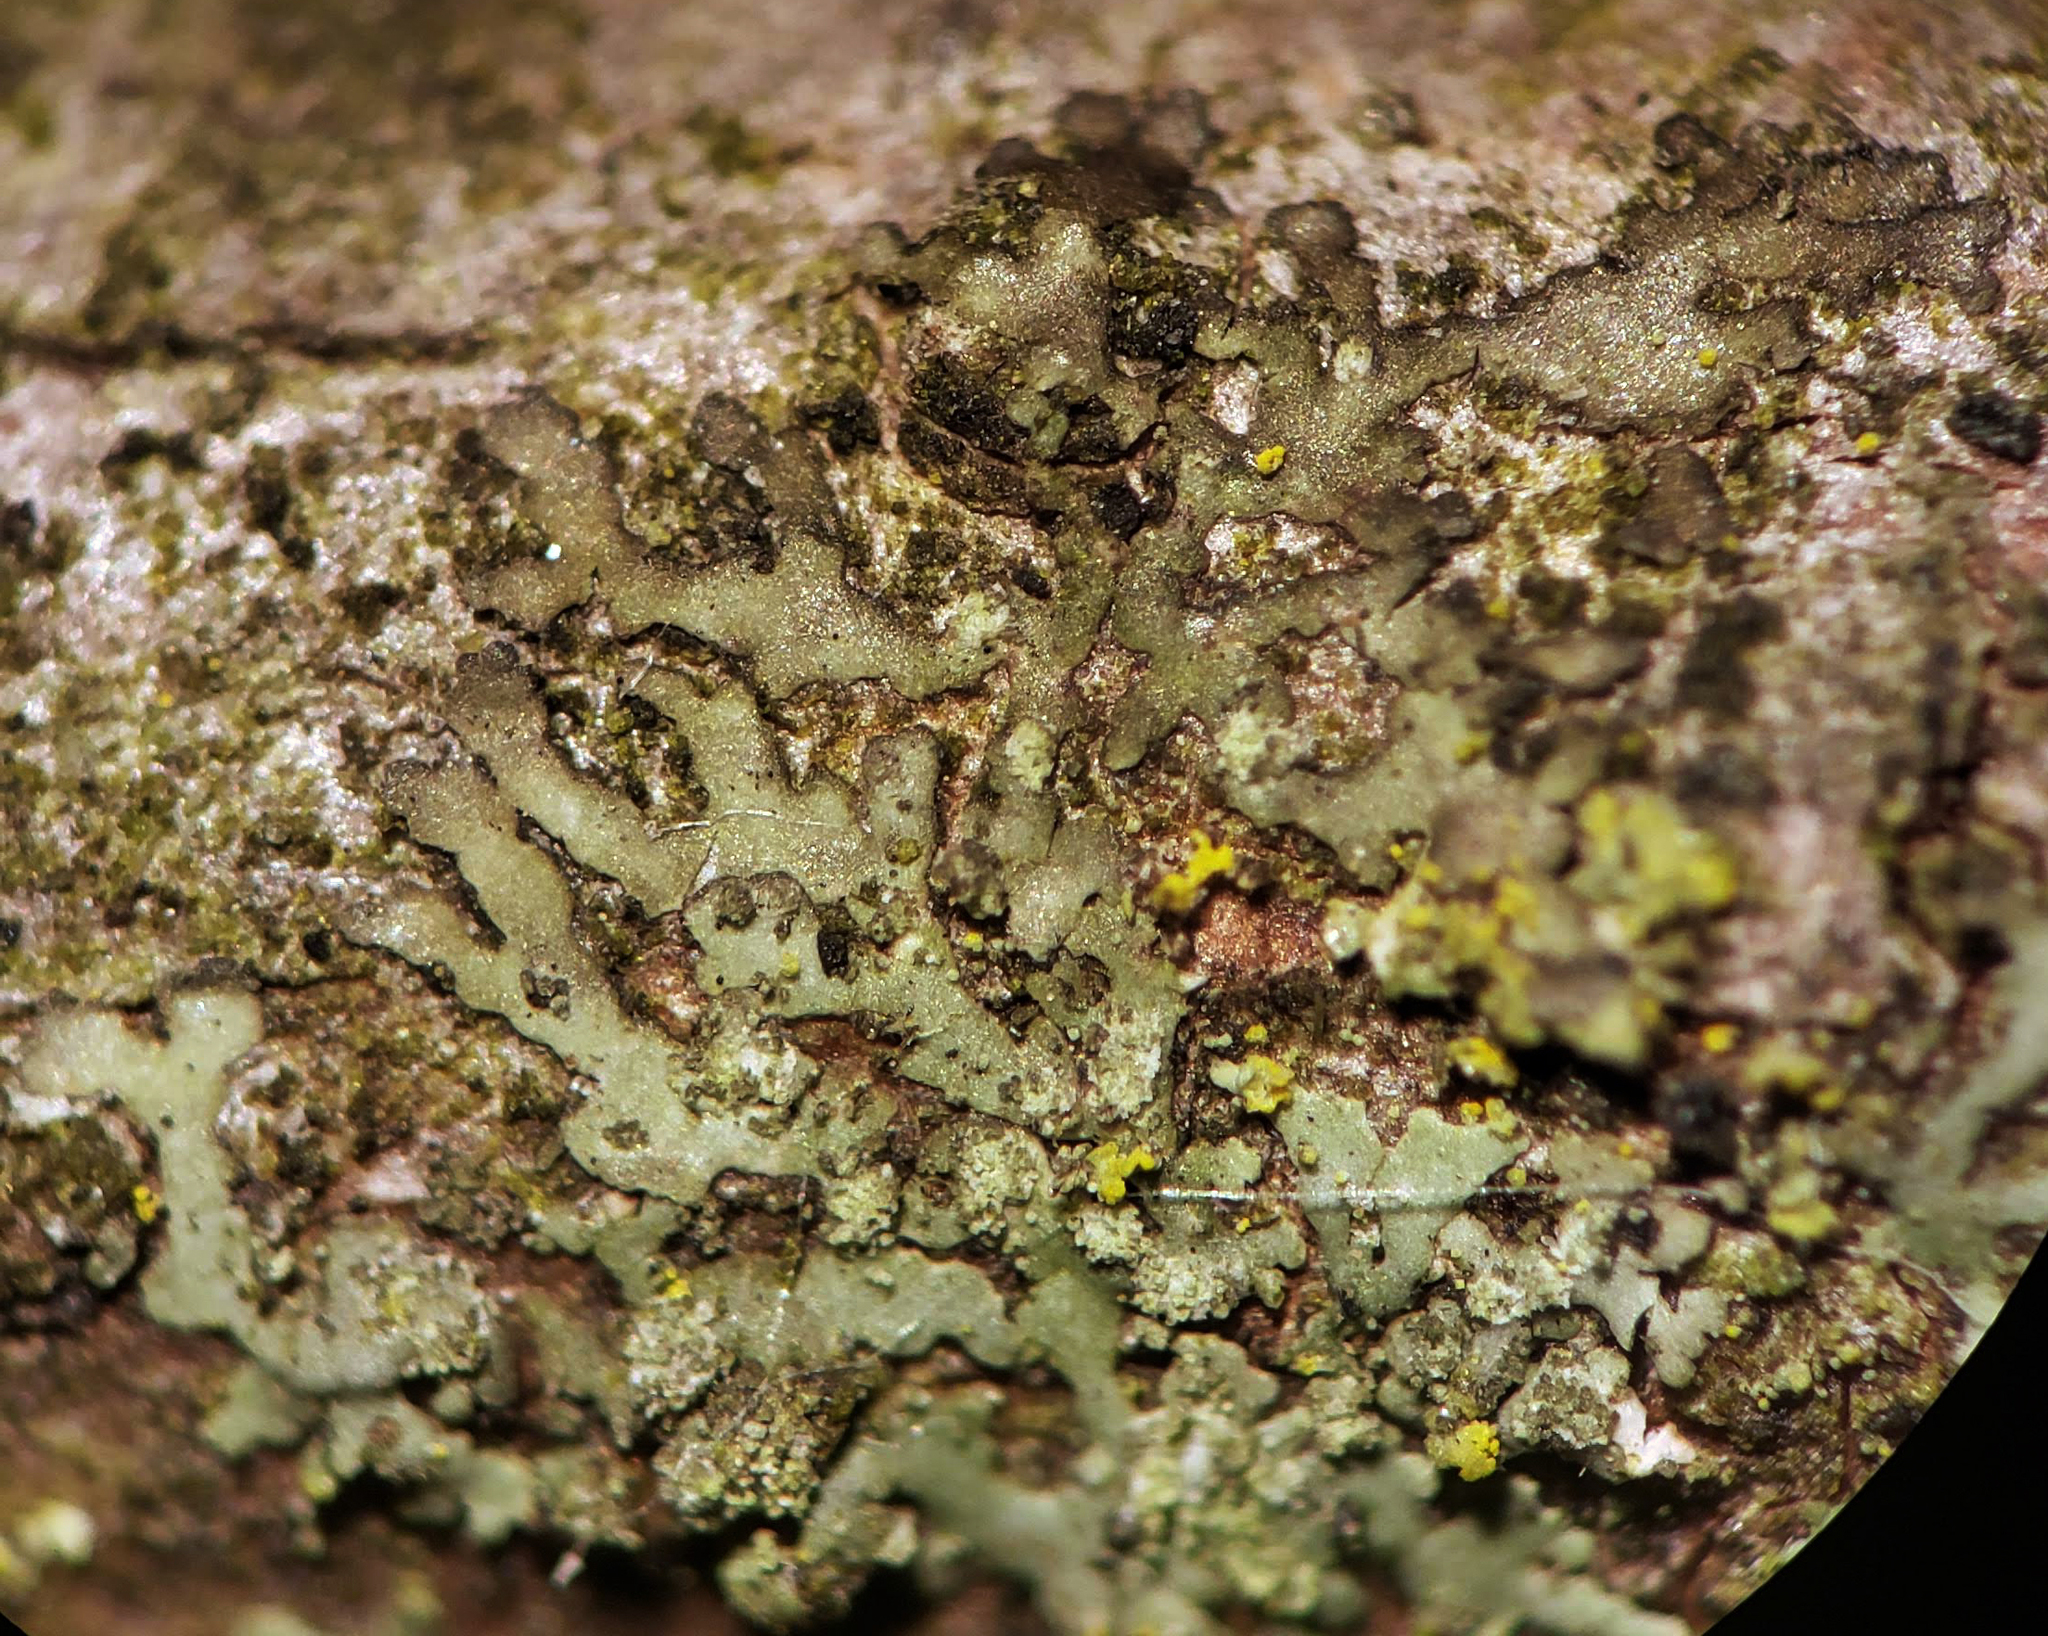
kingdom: Fungi
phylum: Ascomycota
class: Lecanoromycetes
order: Caliciales
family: Physciaceae
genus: Hyperphyscia
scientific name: Hyperphyscia adglutinata
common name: Grainy shadow-crust lichen
